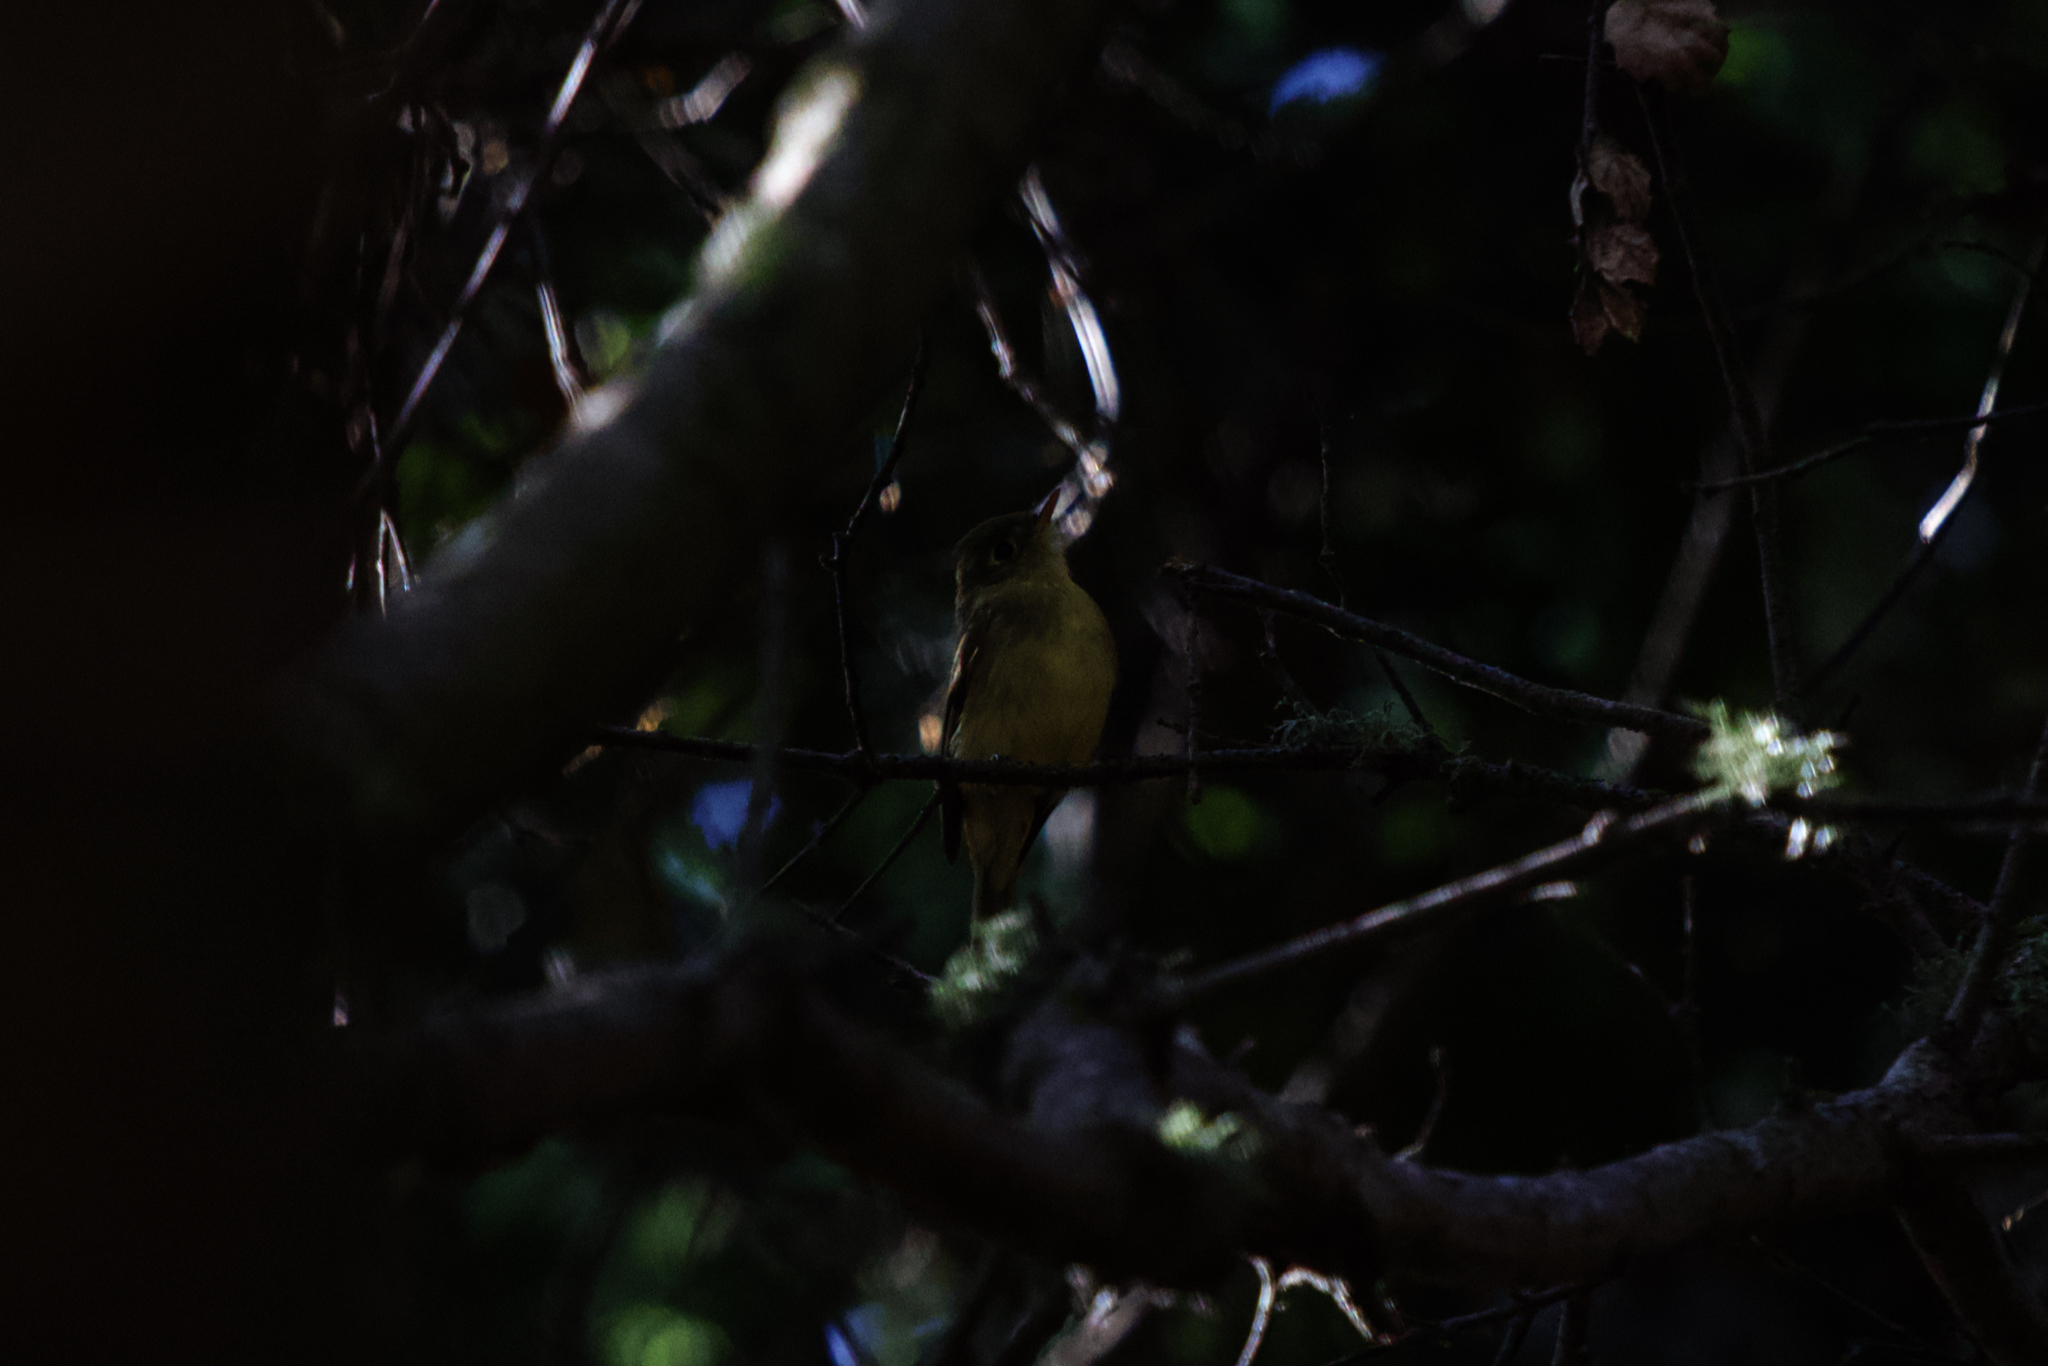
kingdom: Animalia
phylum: Chordata
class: Aves
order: Passeriformes
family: Tyrannidae
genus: Empidonax
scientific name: Empidonax difficilis
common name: Pacific-slope flycatcher
